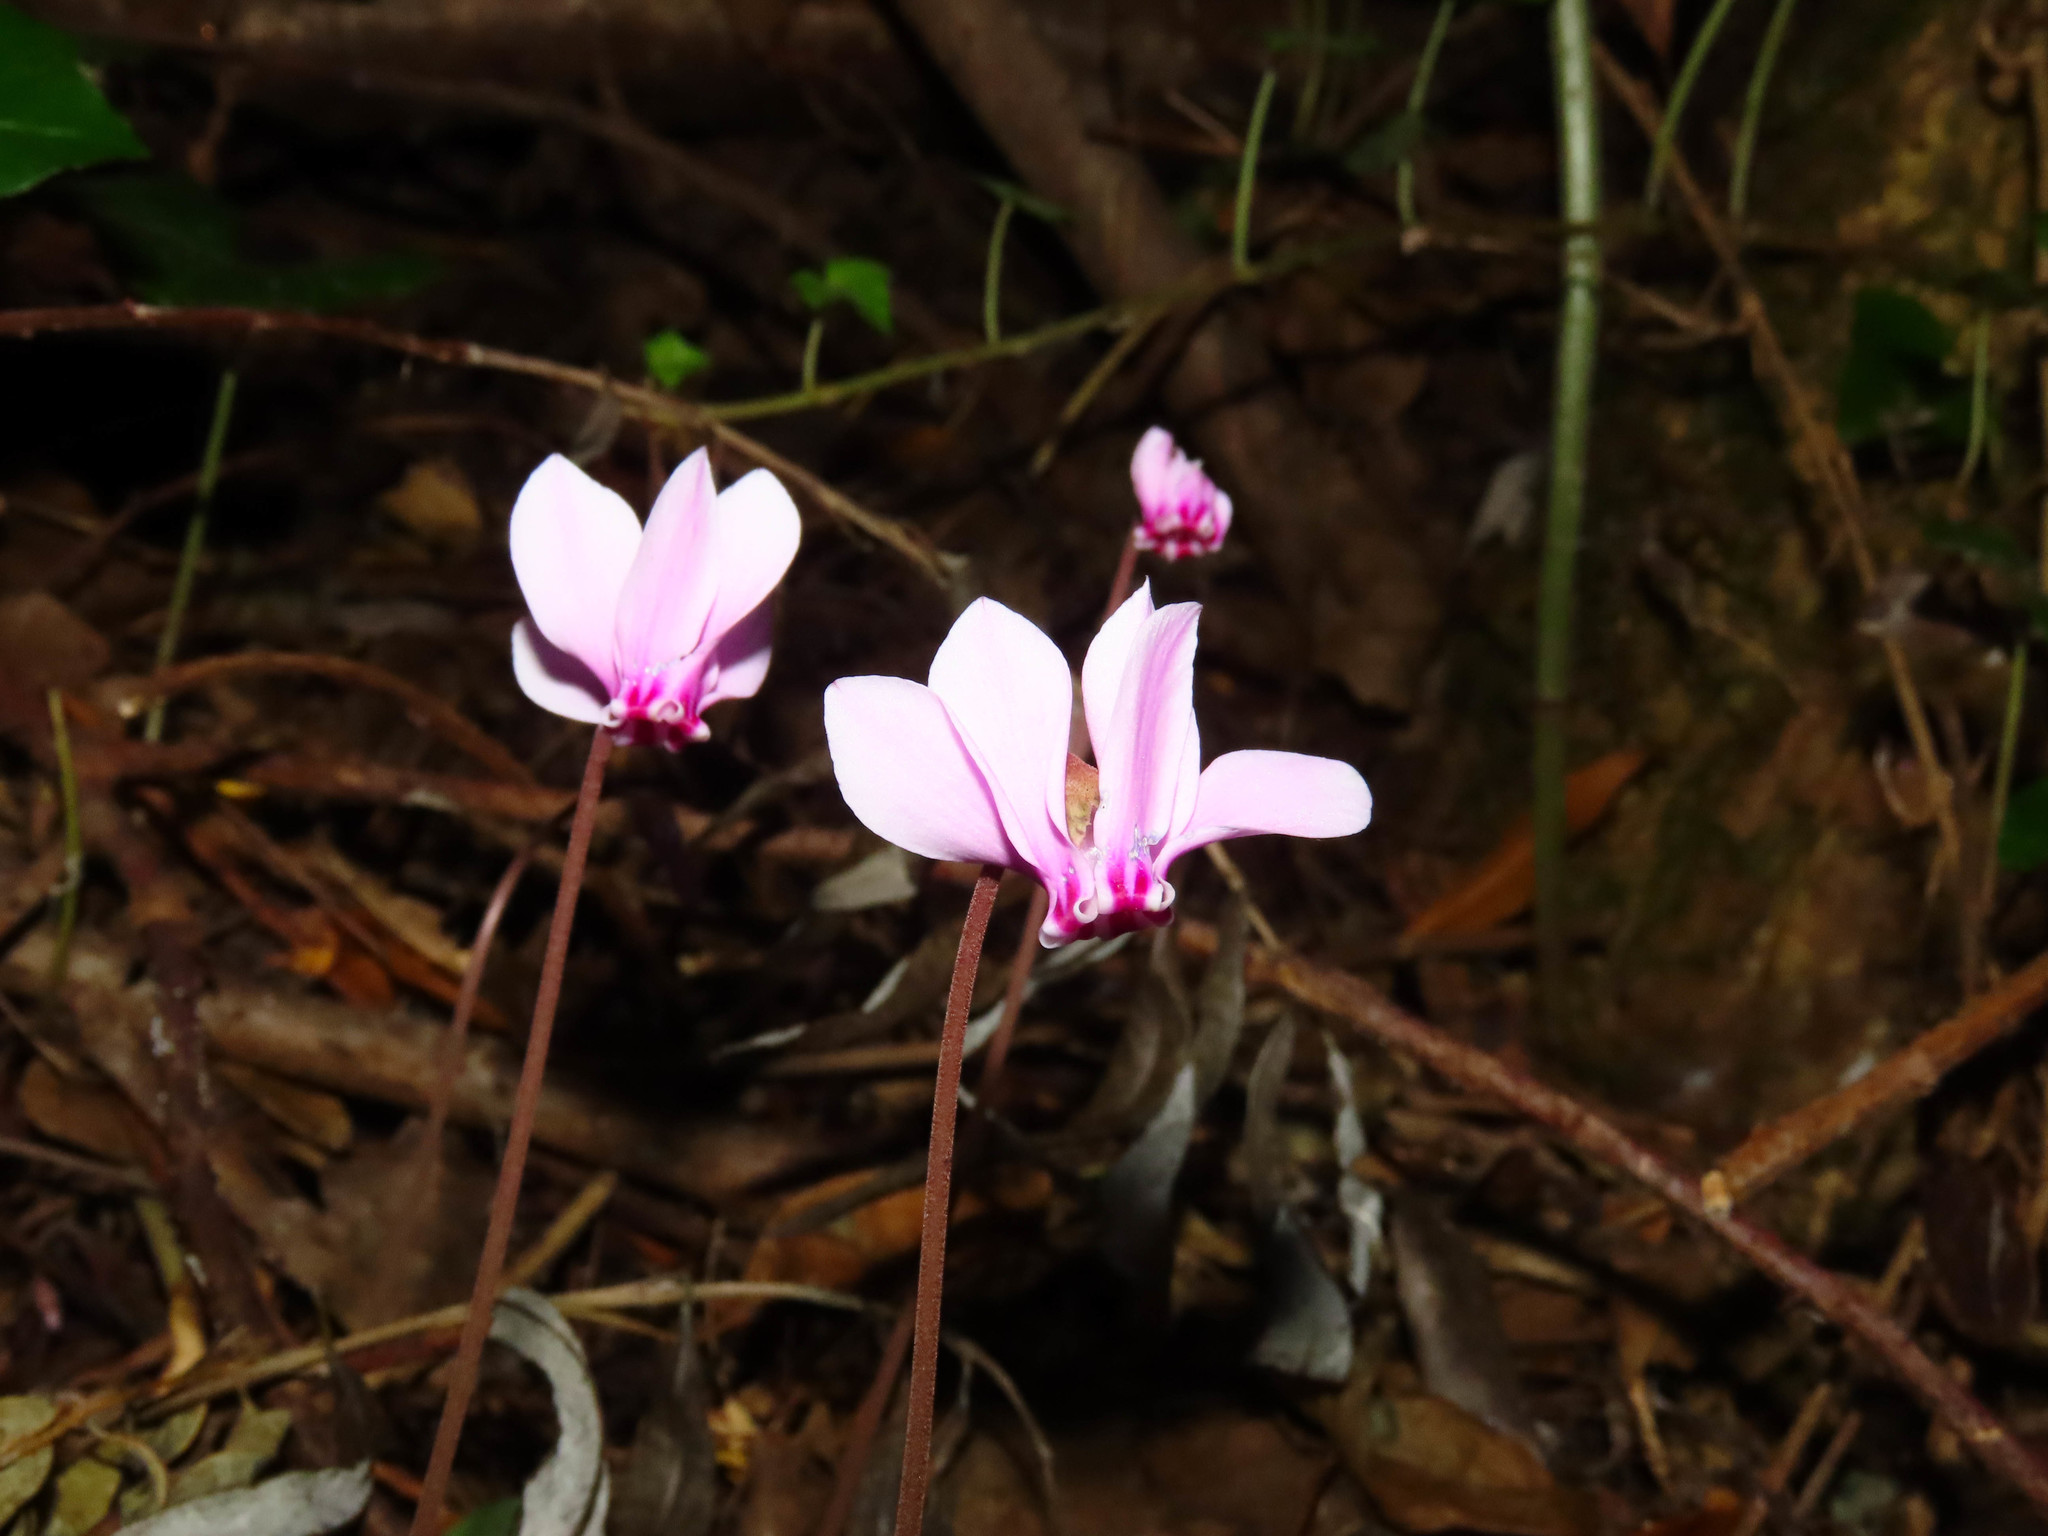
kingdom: Plantae
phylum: Tracheophyta
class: Magnoliopsida
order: Ericales
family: Primulaceae
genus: Cyclamen
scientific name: Cyclamen hederifolium
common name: Sowbread
